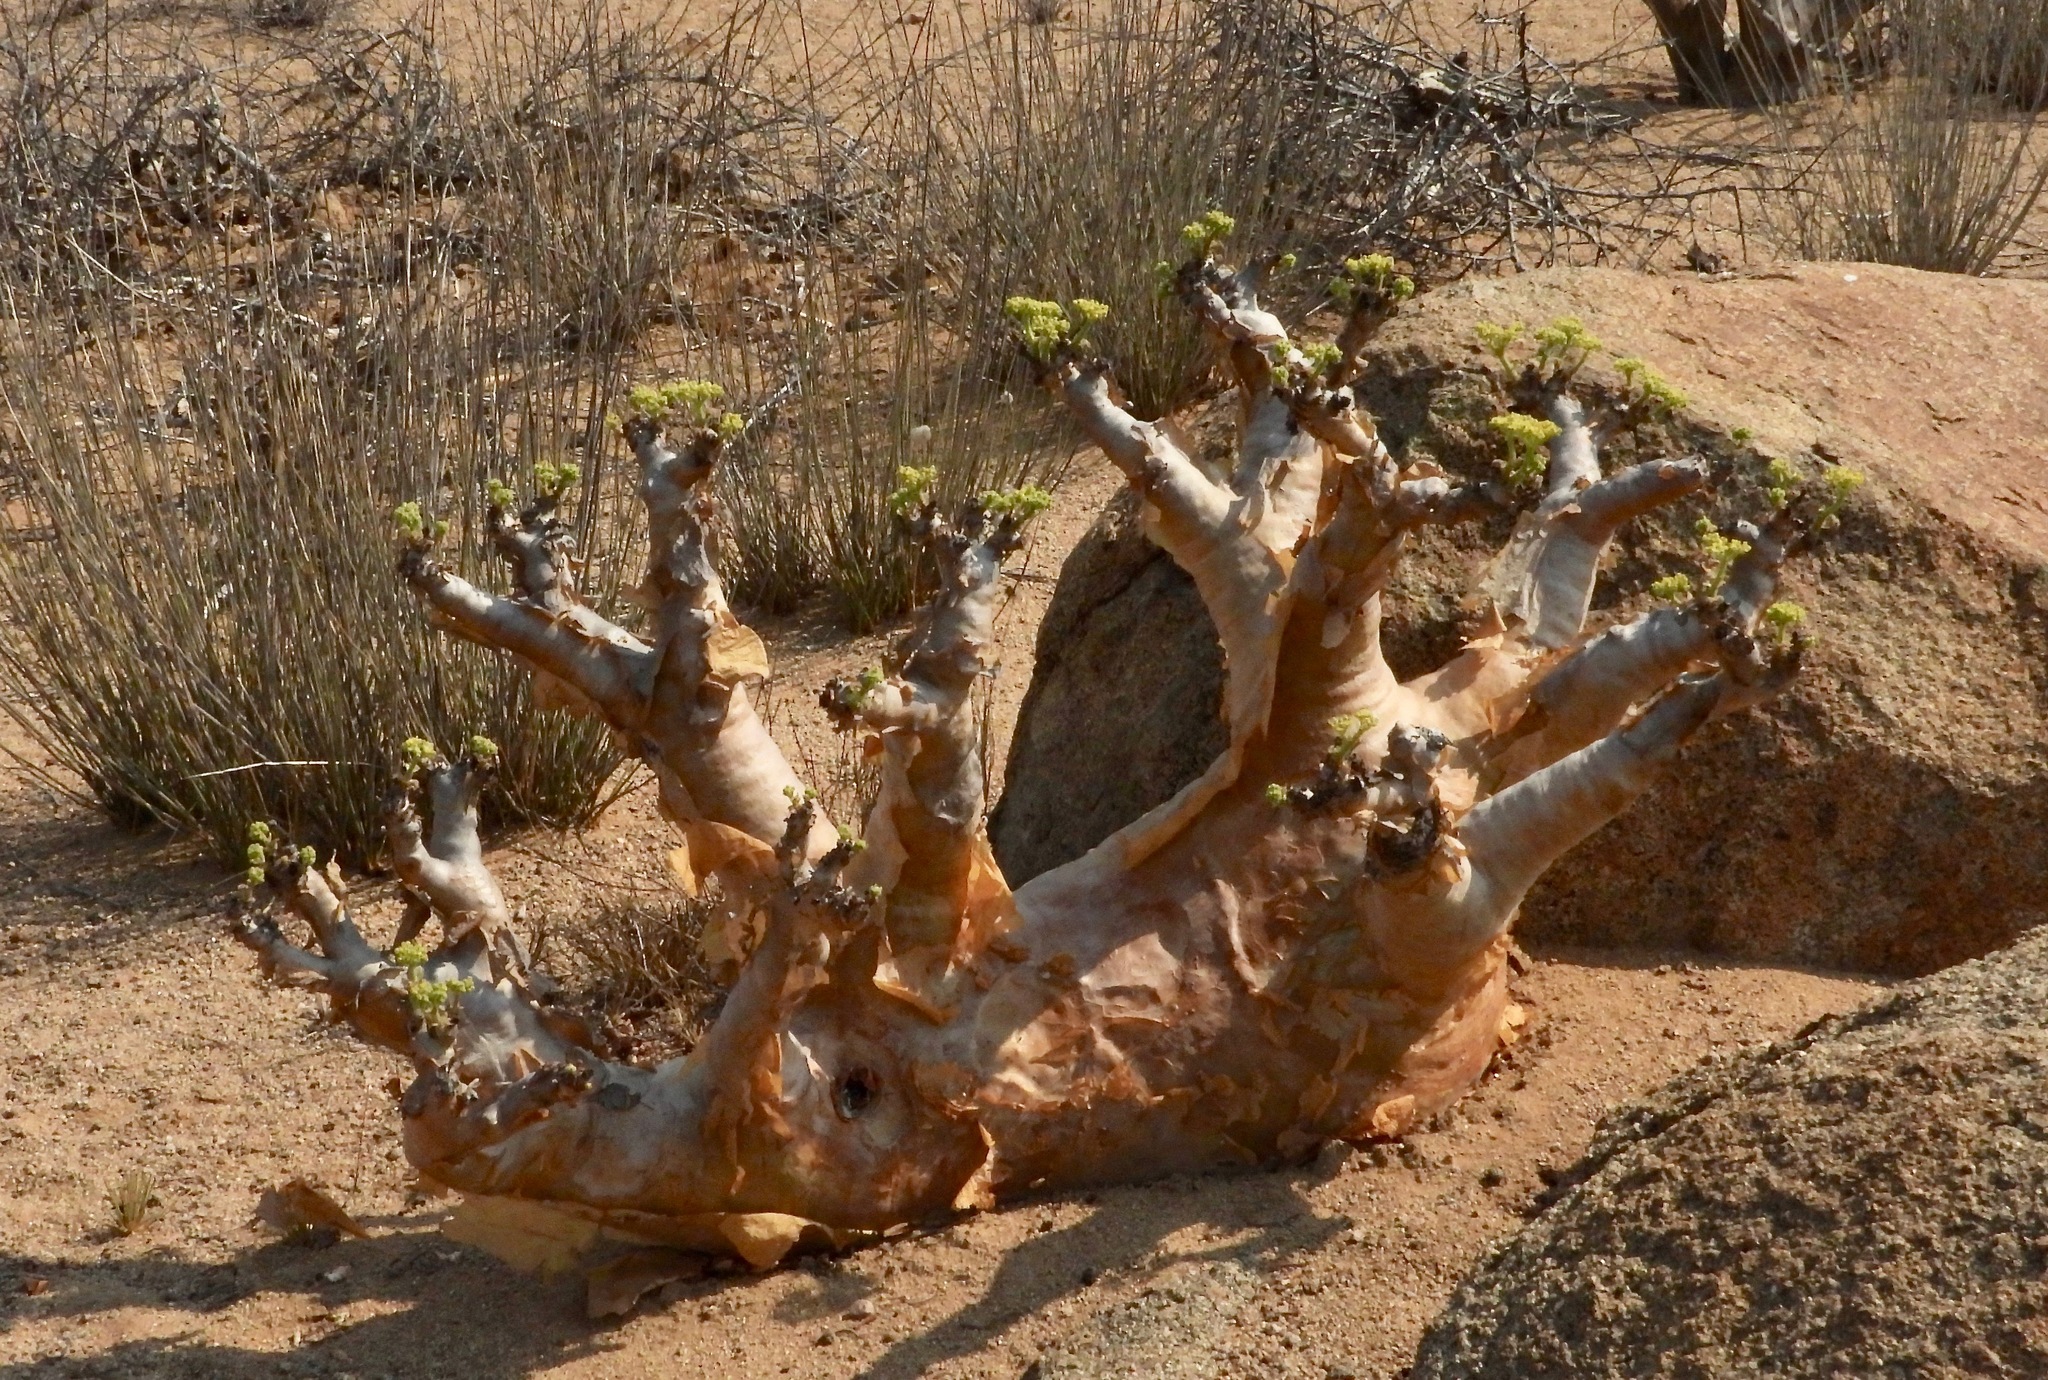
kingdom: Plantae
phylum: Tracheophyta
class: Magnoliopsida
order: Vitales
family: Vitaceae
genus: Cyphostemma
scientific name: Cyphostemma uter
